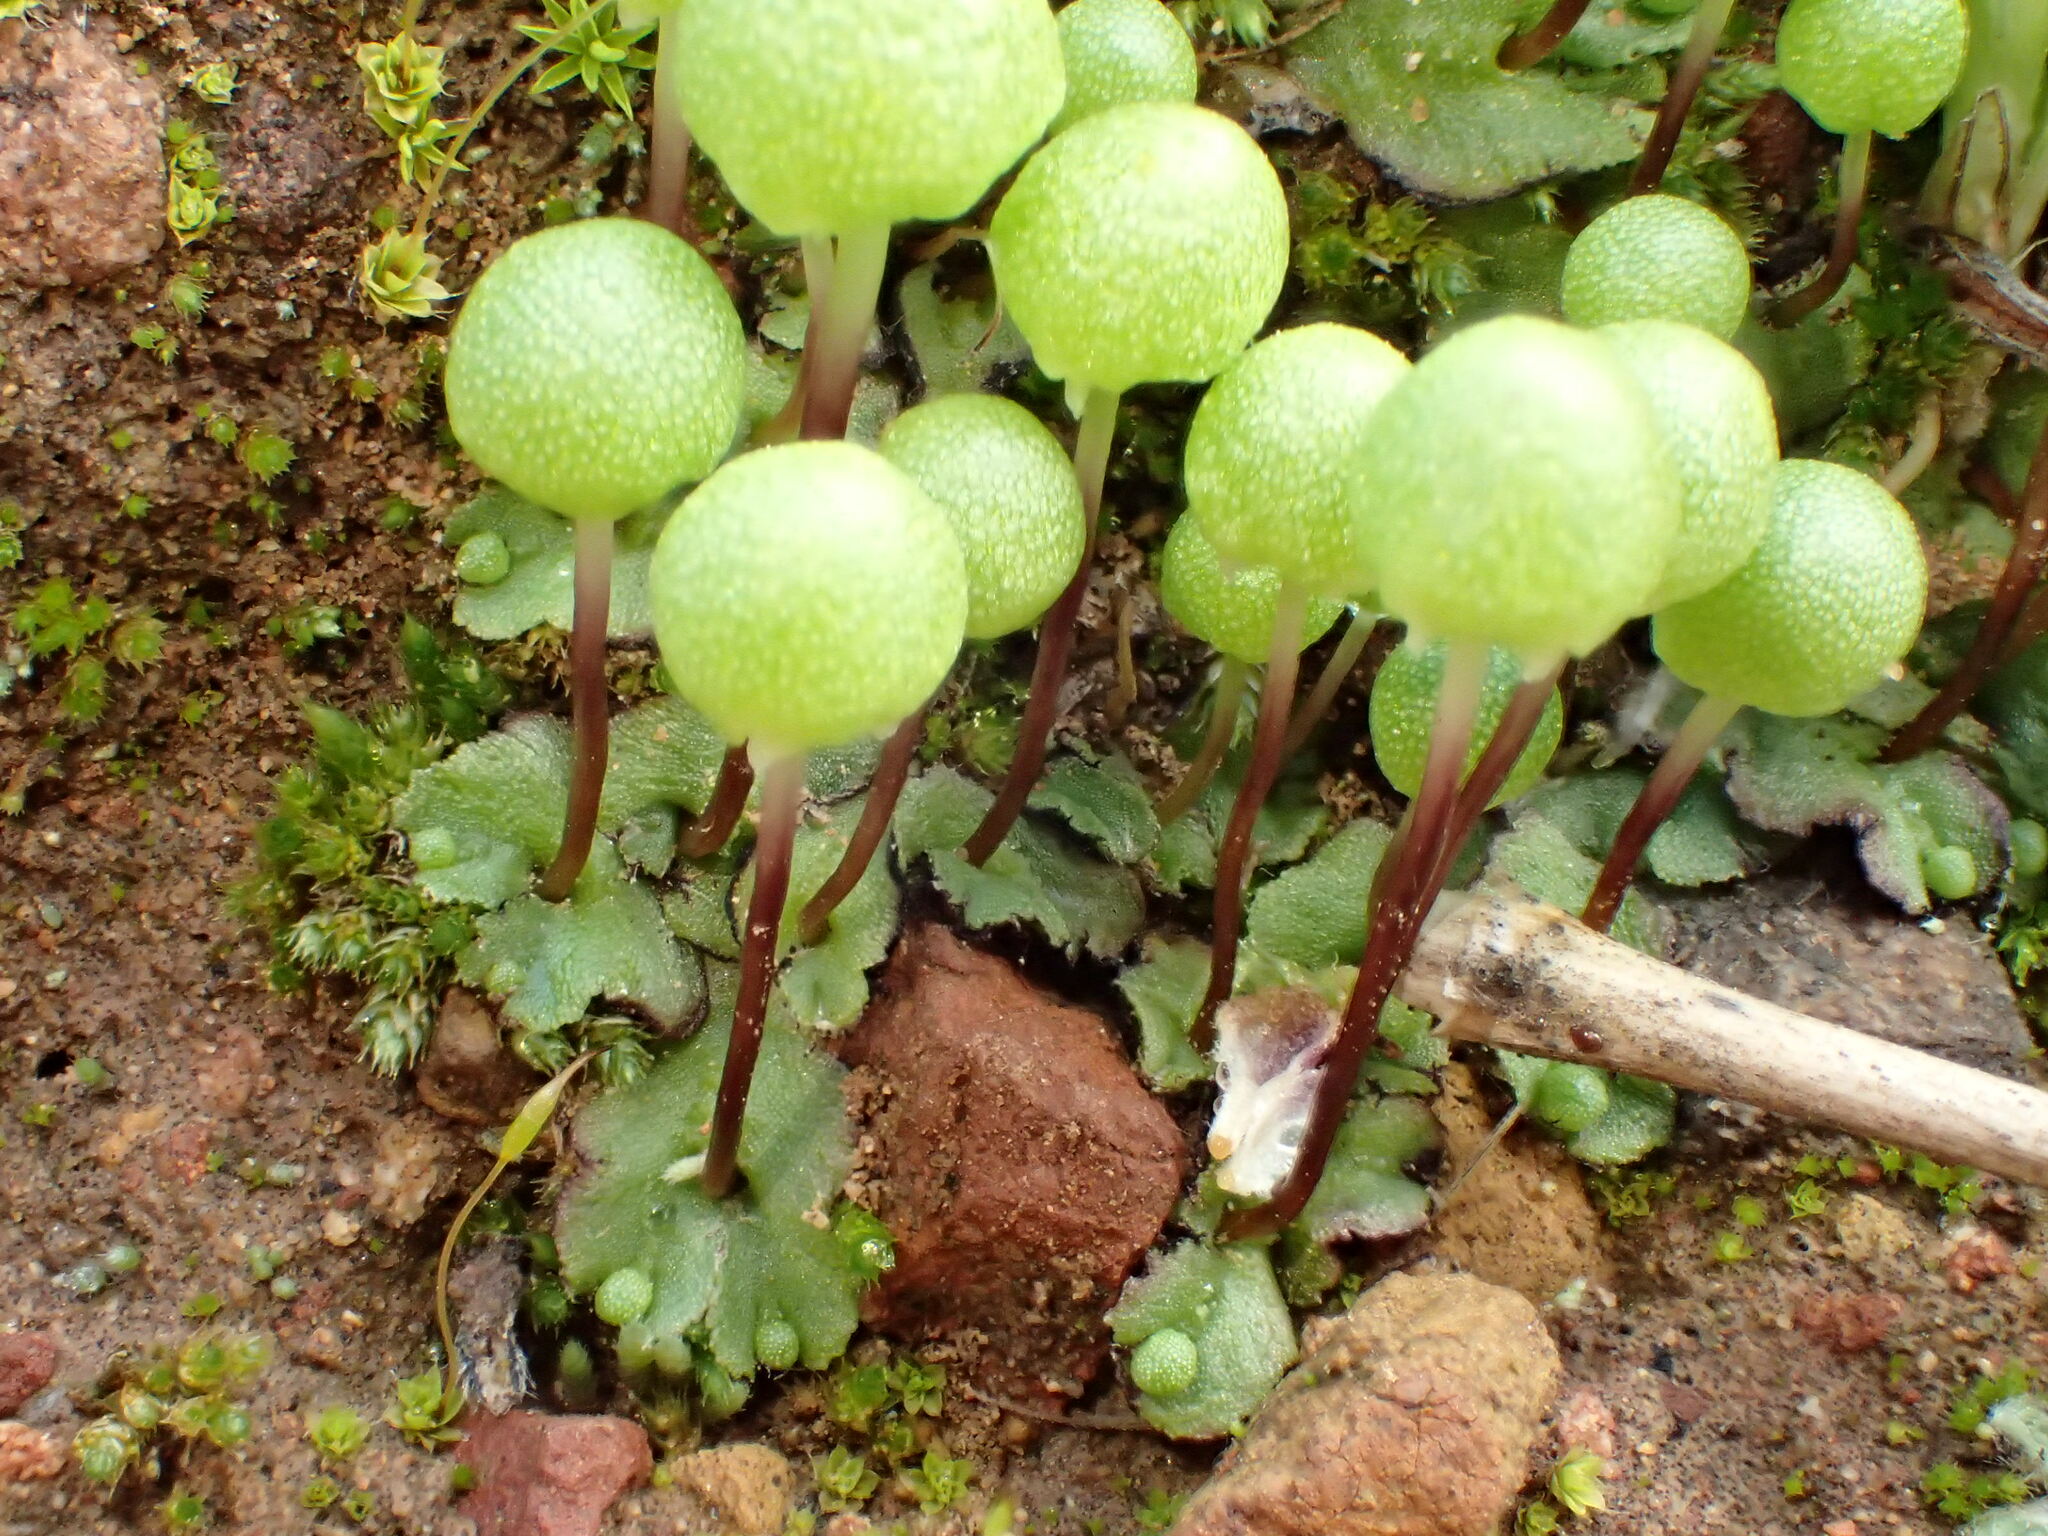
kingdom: Plantae
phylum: Marchantiophyta
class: Marchantiopsida
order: Marchantiales
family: Aytoniaceae
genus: Asterella
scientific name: Asterella palmeri
